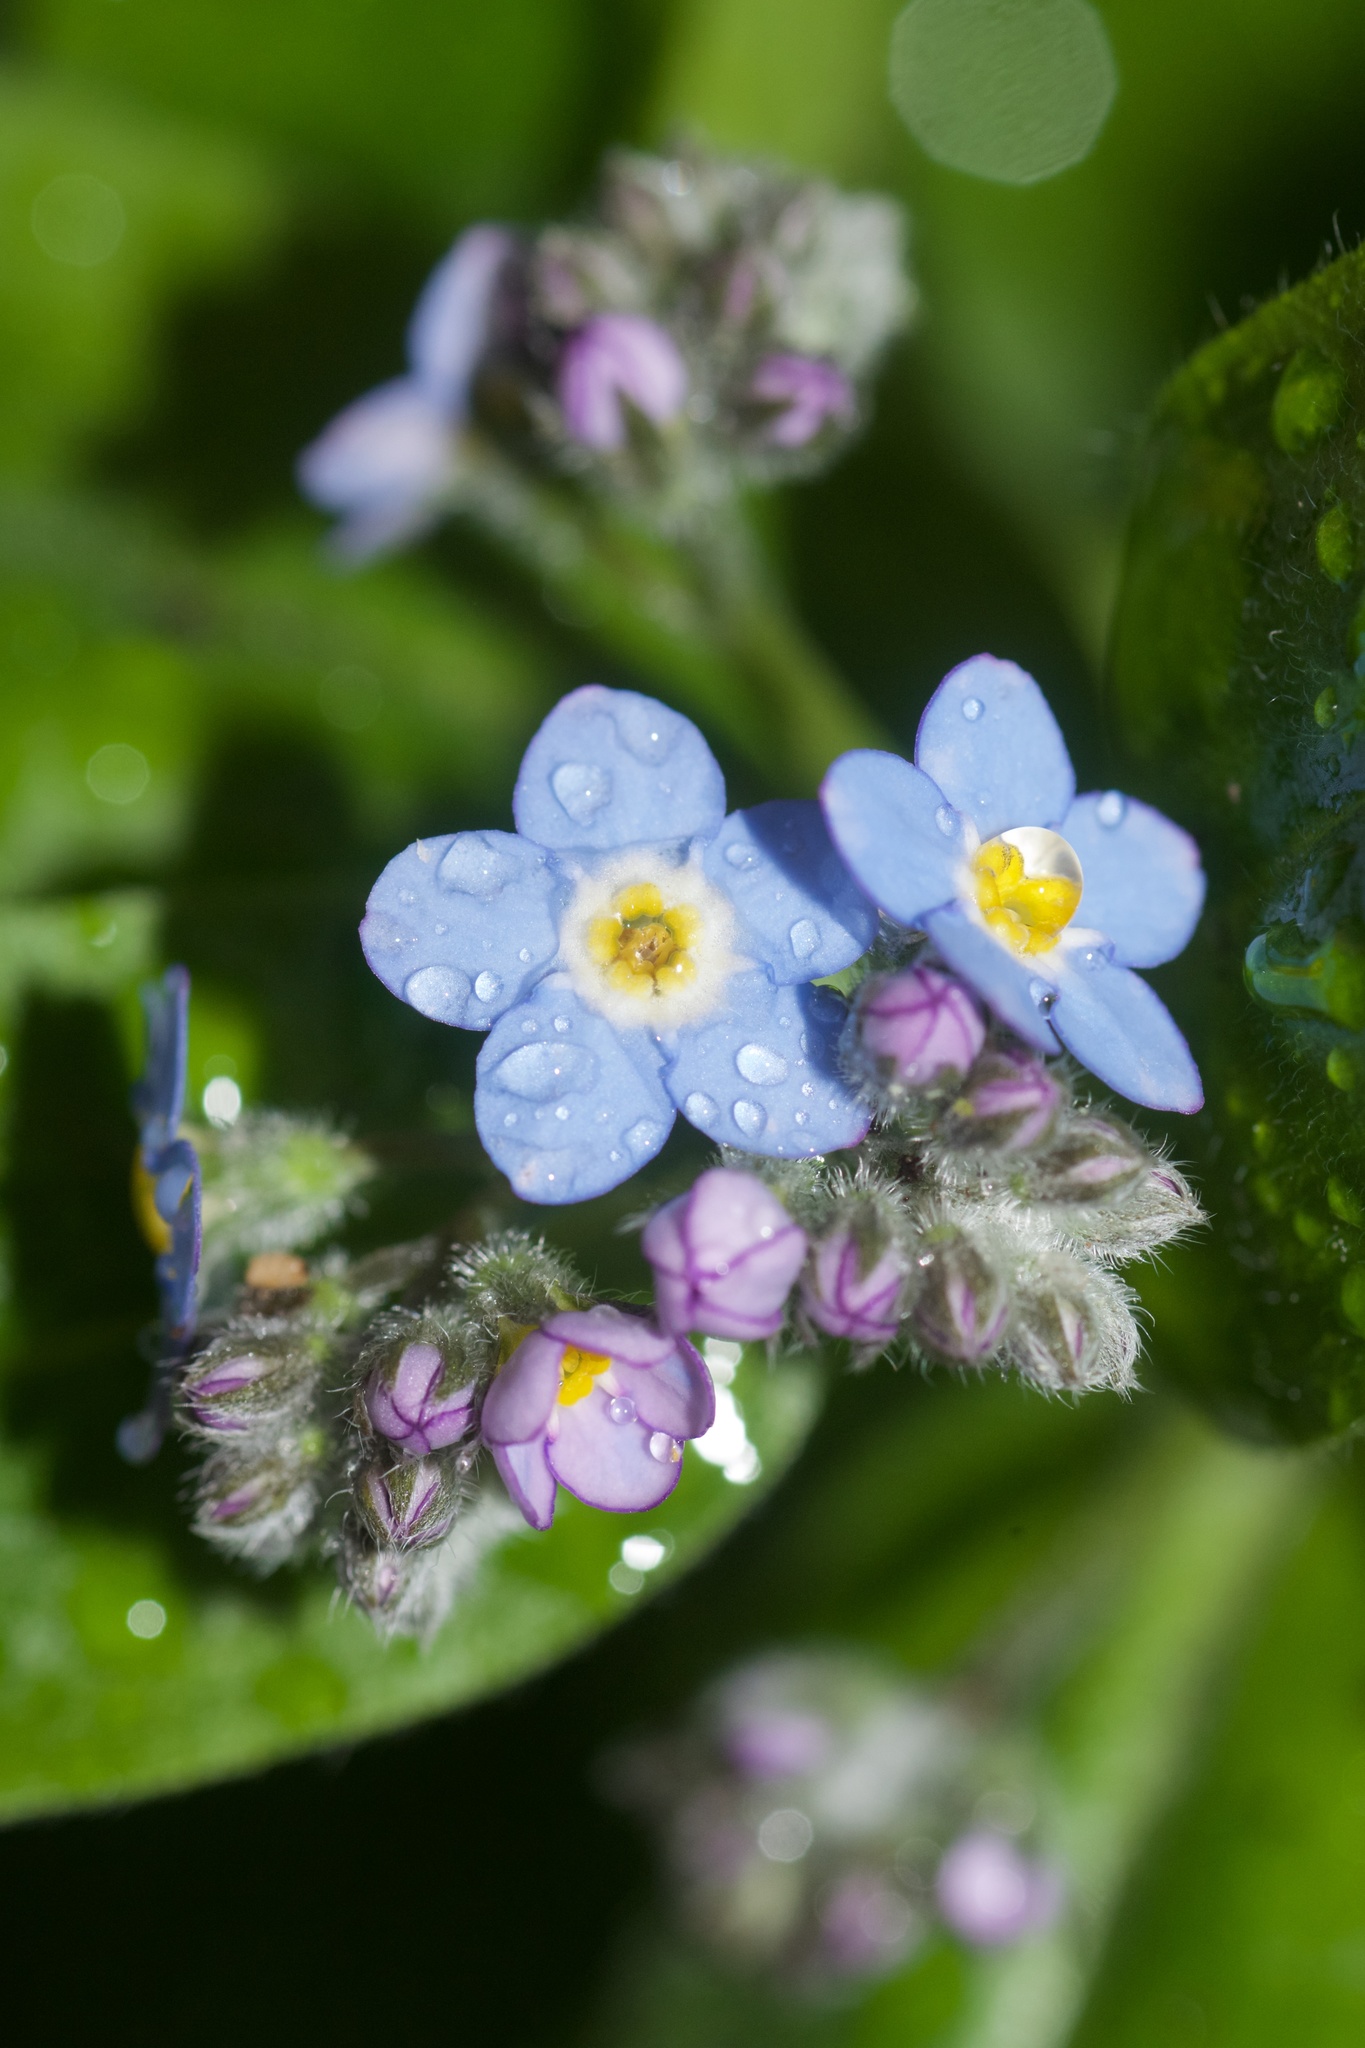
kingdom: Plantae
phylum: Tracheophyta
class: Magnoliopsida
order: Boraginales
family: Boraginaceae
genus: Myosotis
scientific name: Myosotis sylvatica
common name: Wood forget-me-not
